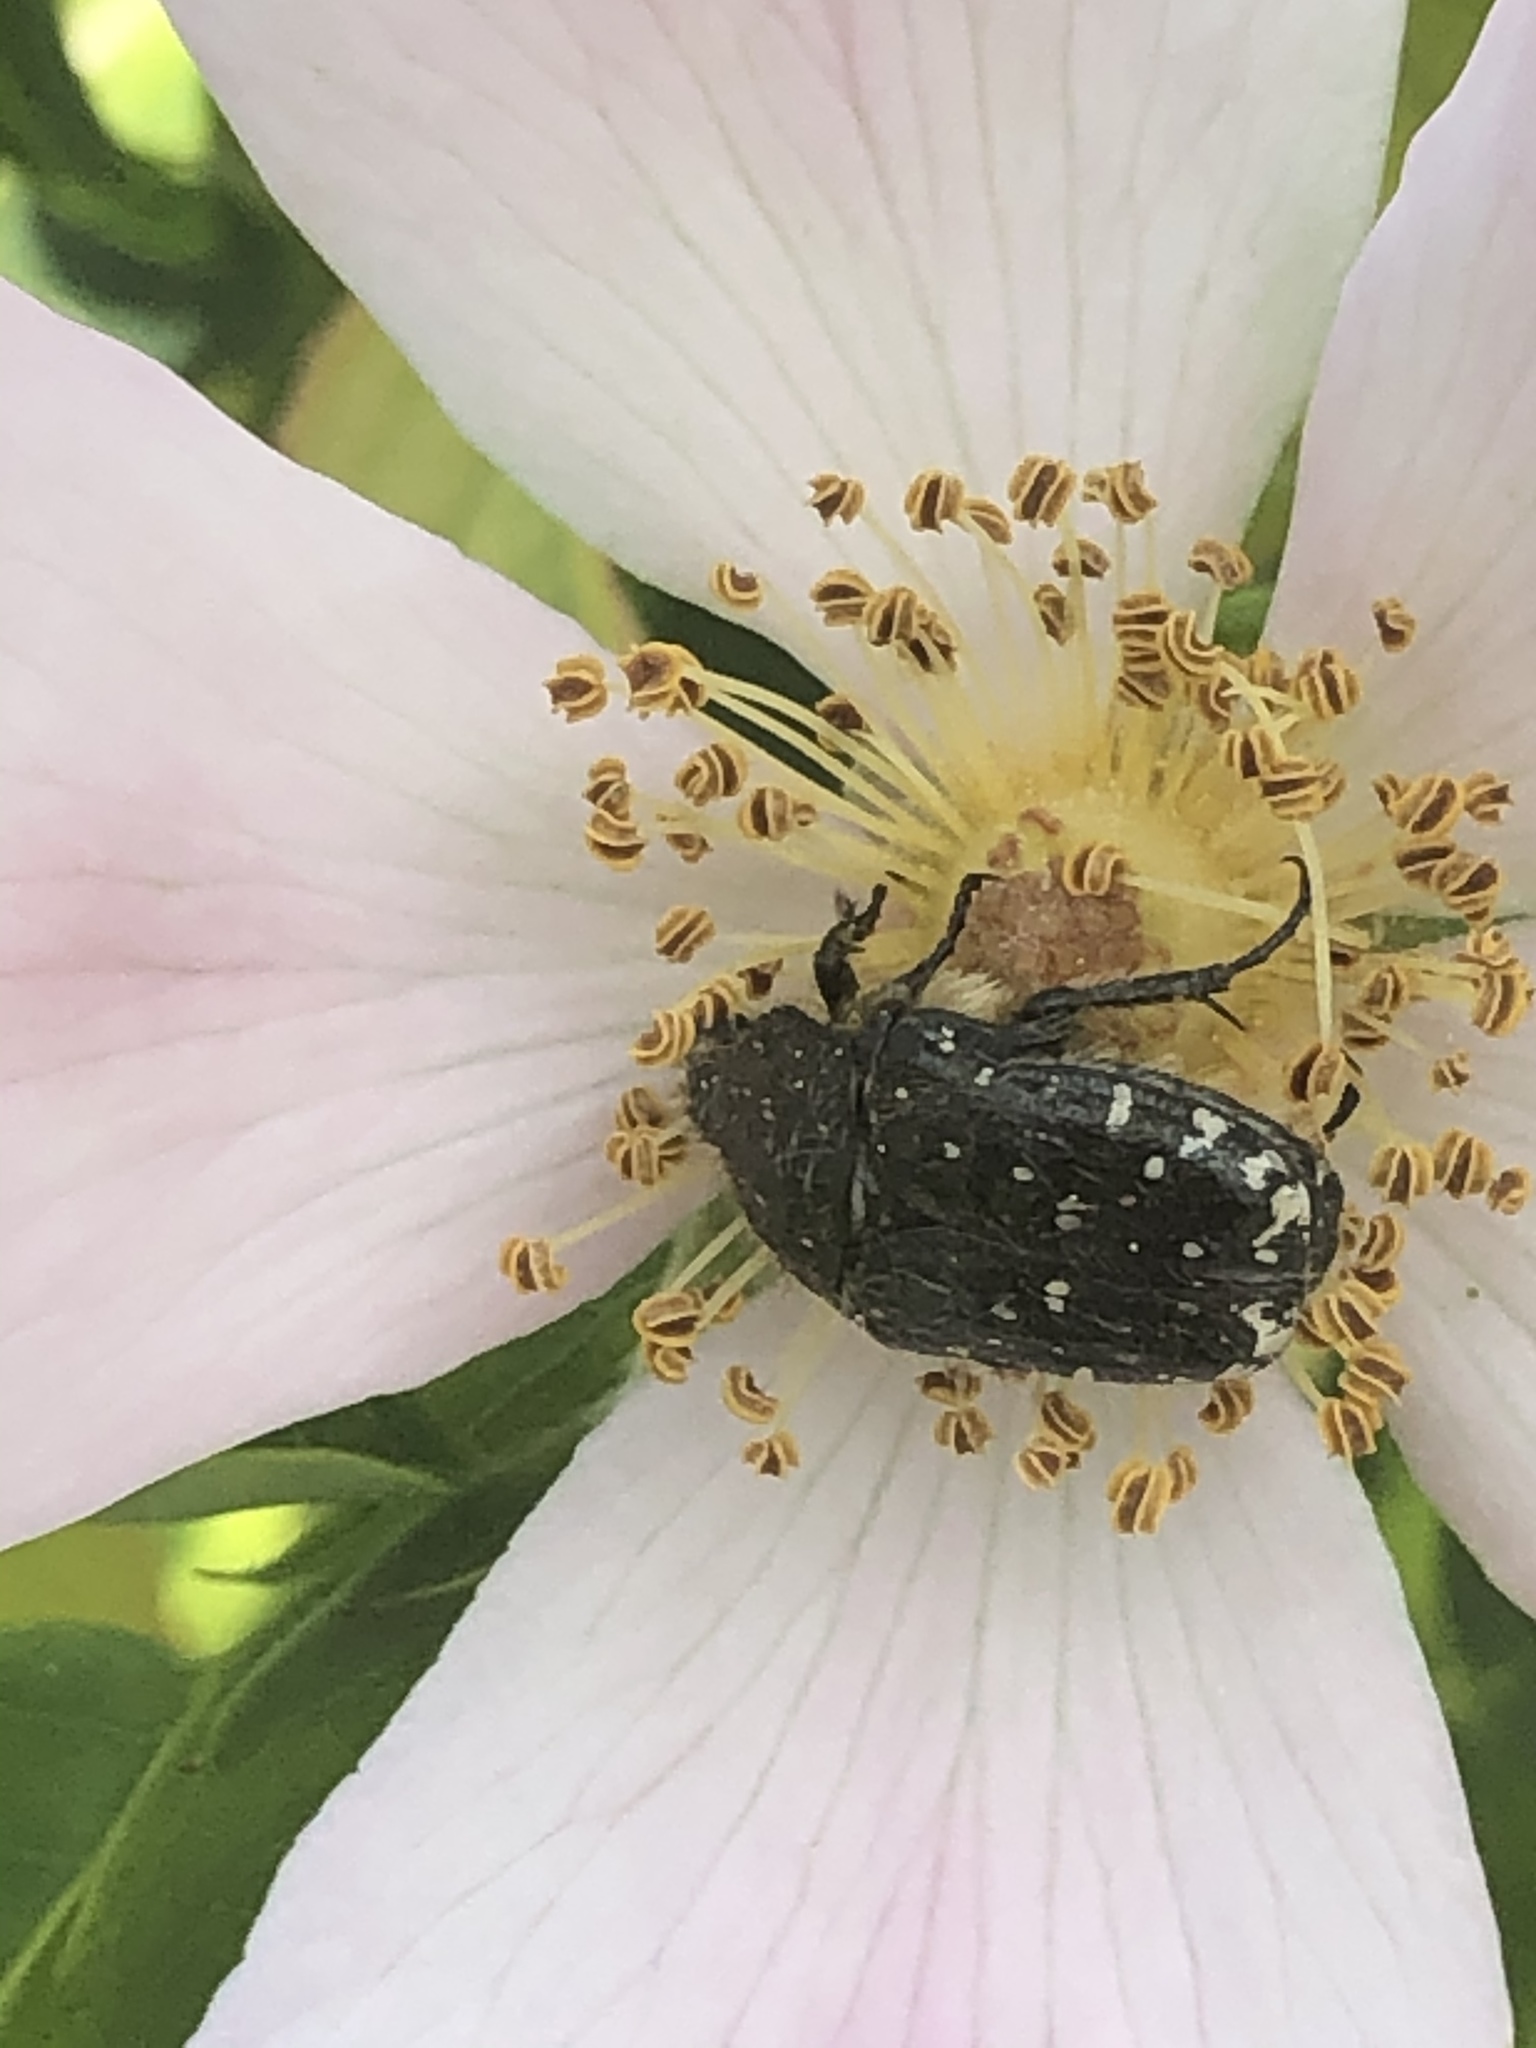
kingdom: Animalia
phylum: Arthropoda
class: Insecta
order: Coleoptera
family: Scarabaeidae
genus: Oxythyrea
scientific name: Oxythyrea funesta
